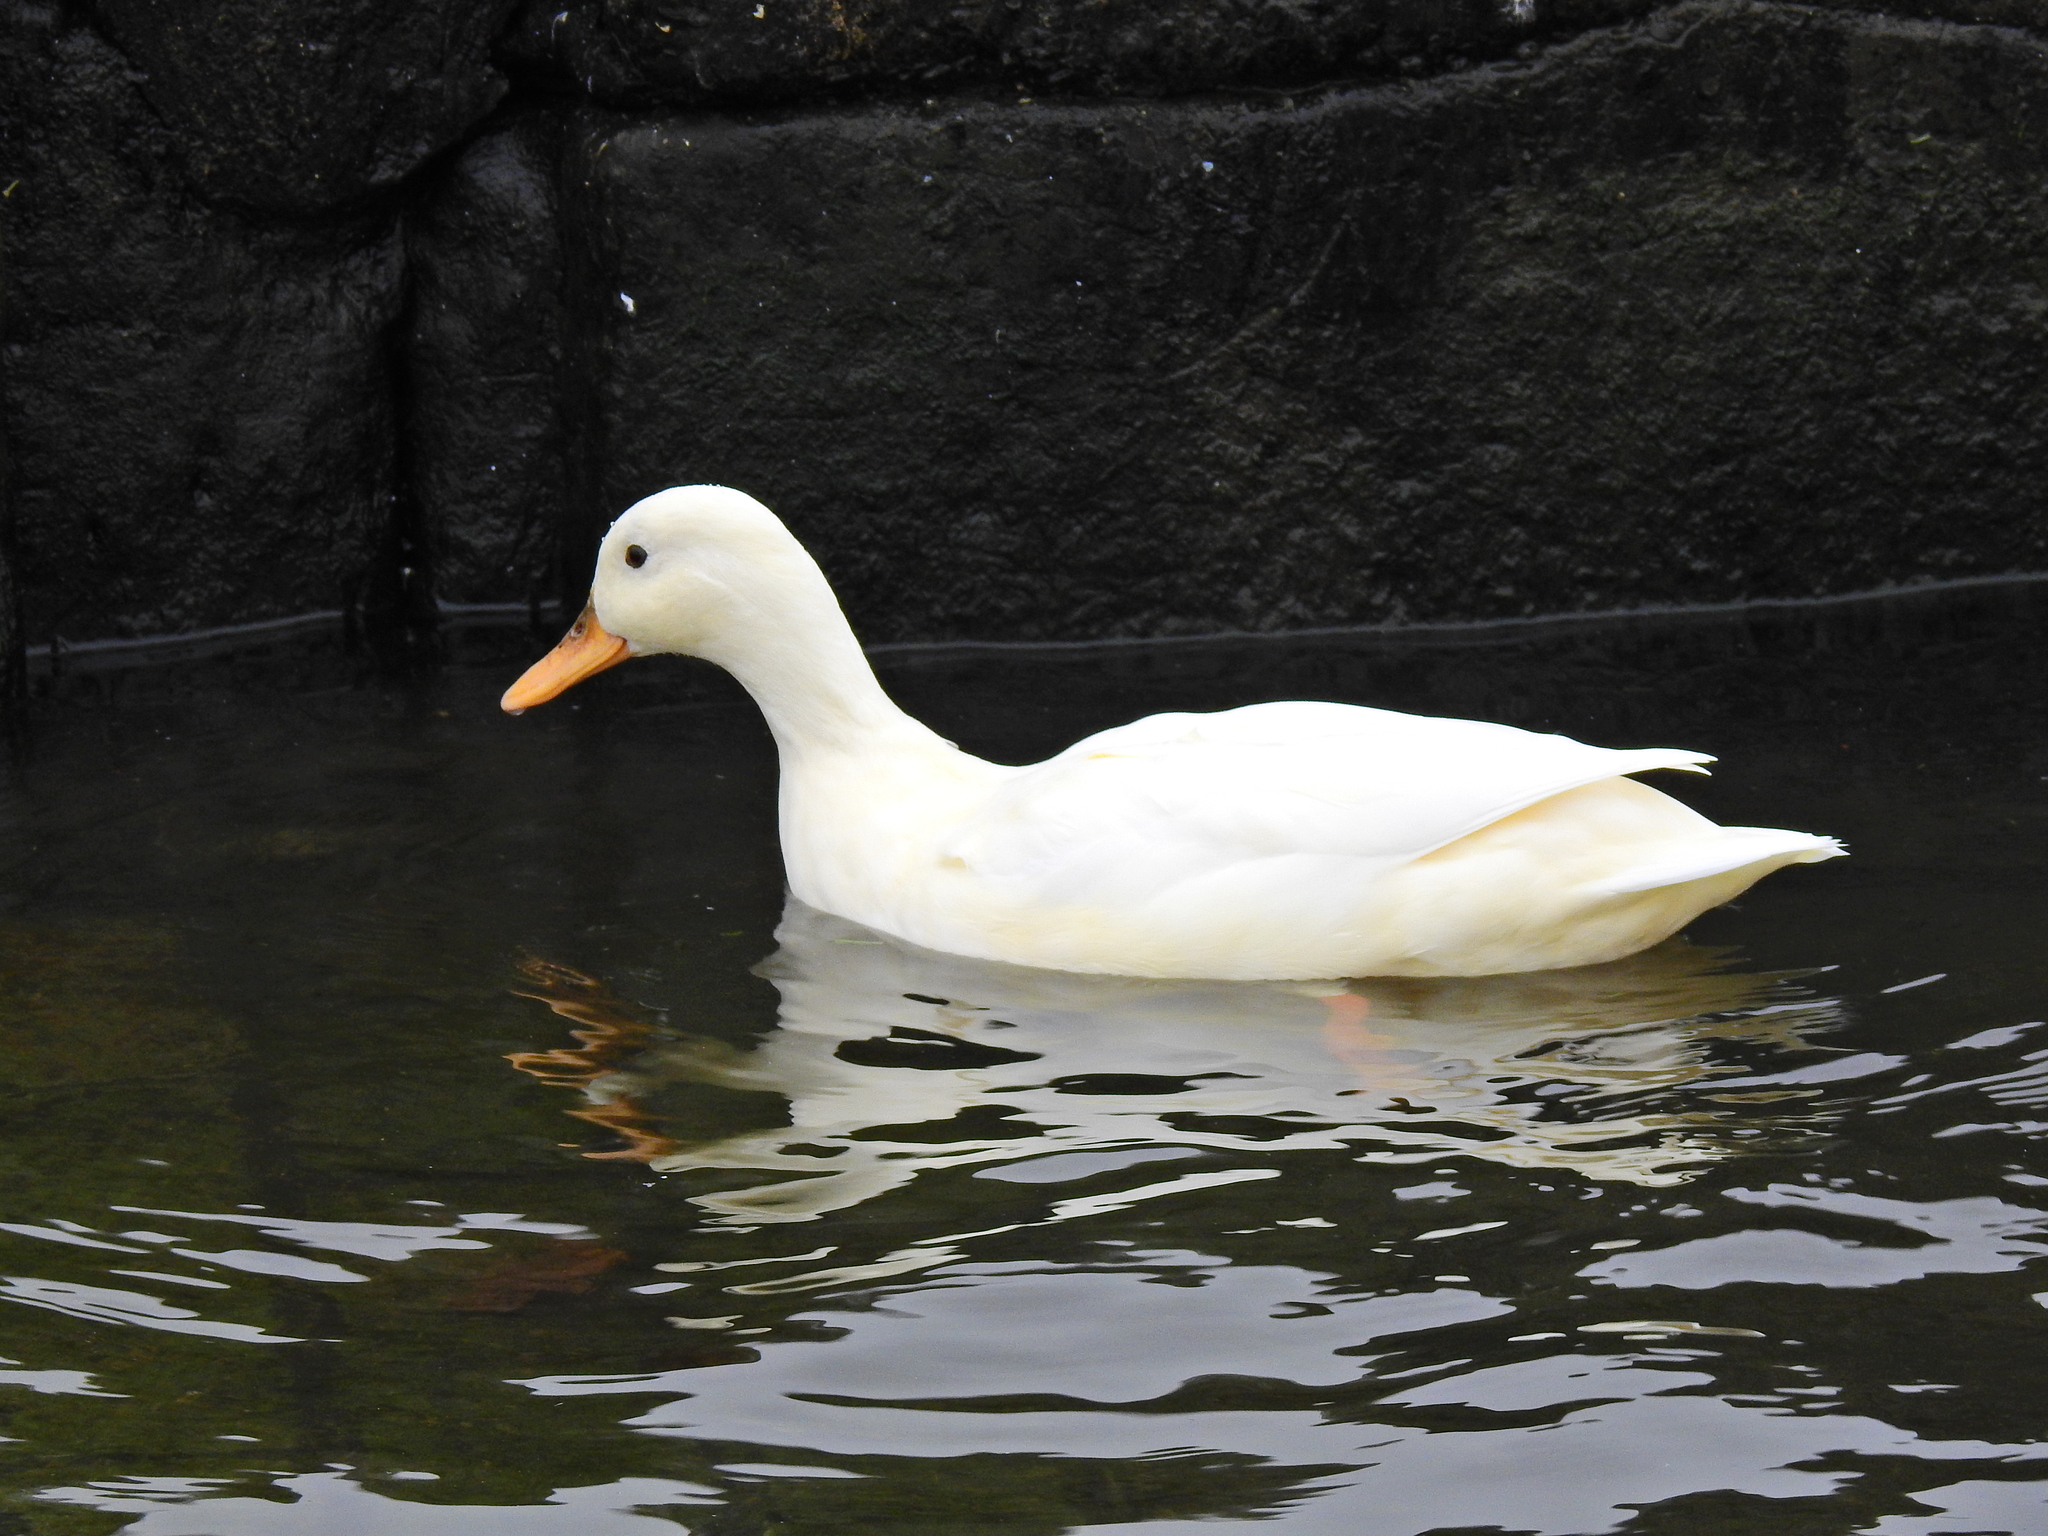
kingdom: Animalia
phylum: Chordata
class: Aves
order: Anseriformes
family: Anatidae
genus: Anas
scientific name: Anas platyrhynchos
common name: Mallard
